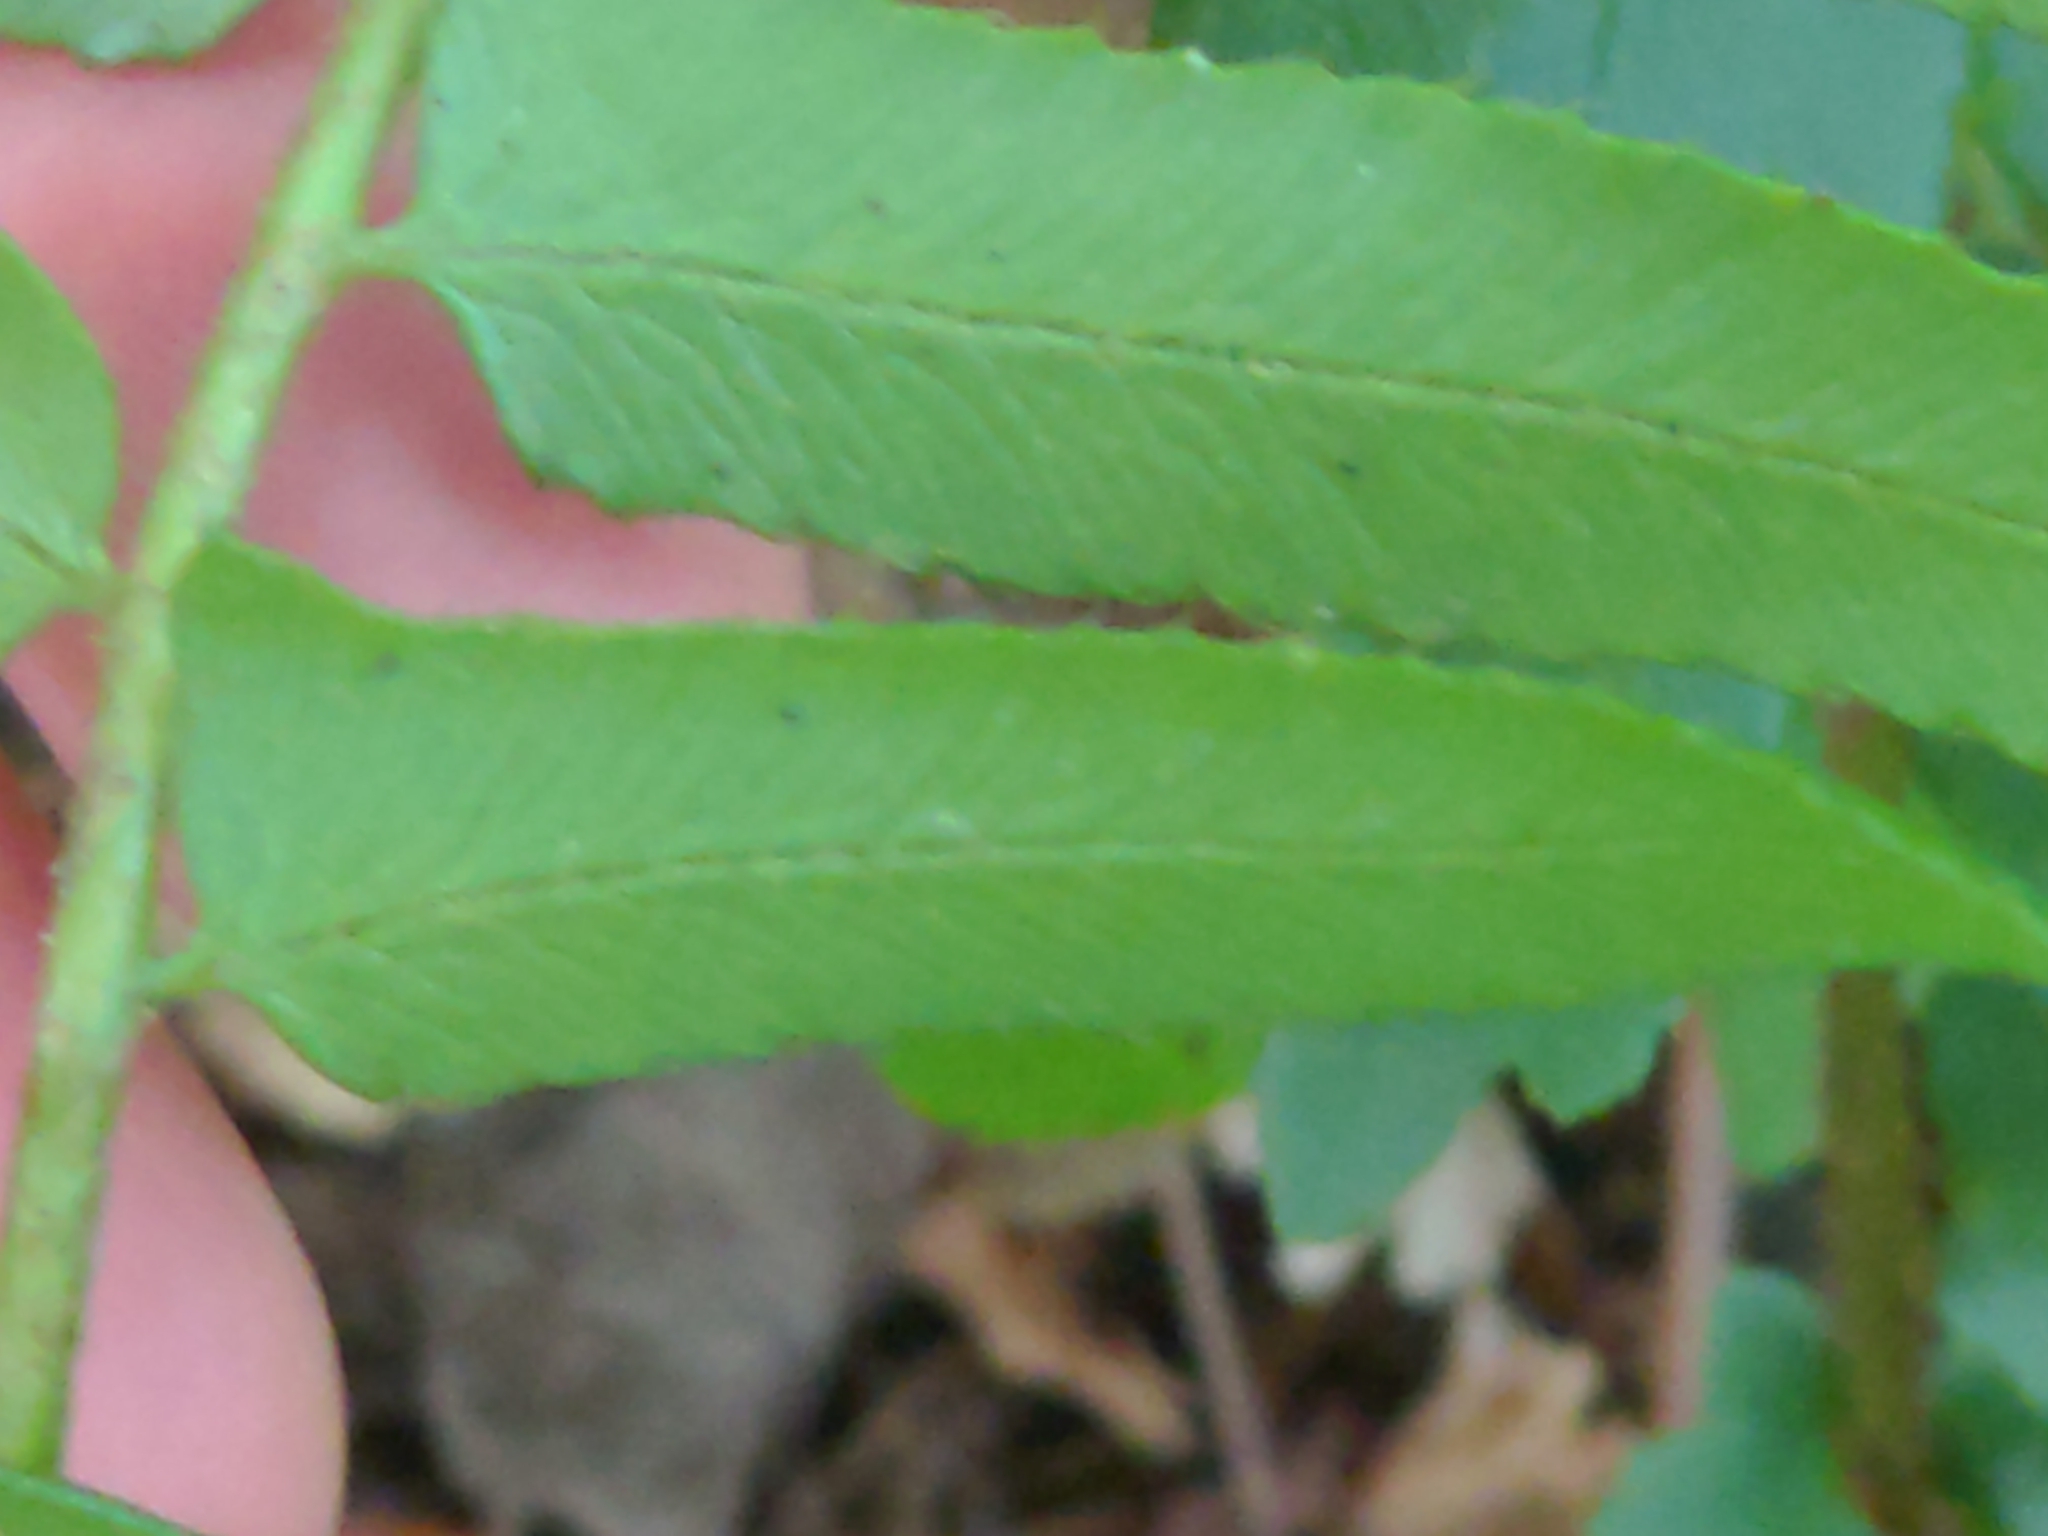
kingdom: Plantae
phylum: Tracheophyta
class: Polypodiopsida
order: Polypodiales
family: Dryopteridaceae
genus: Polystichum
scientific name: Polystichum acrostichoides
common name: Christmas fern
